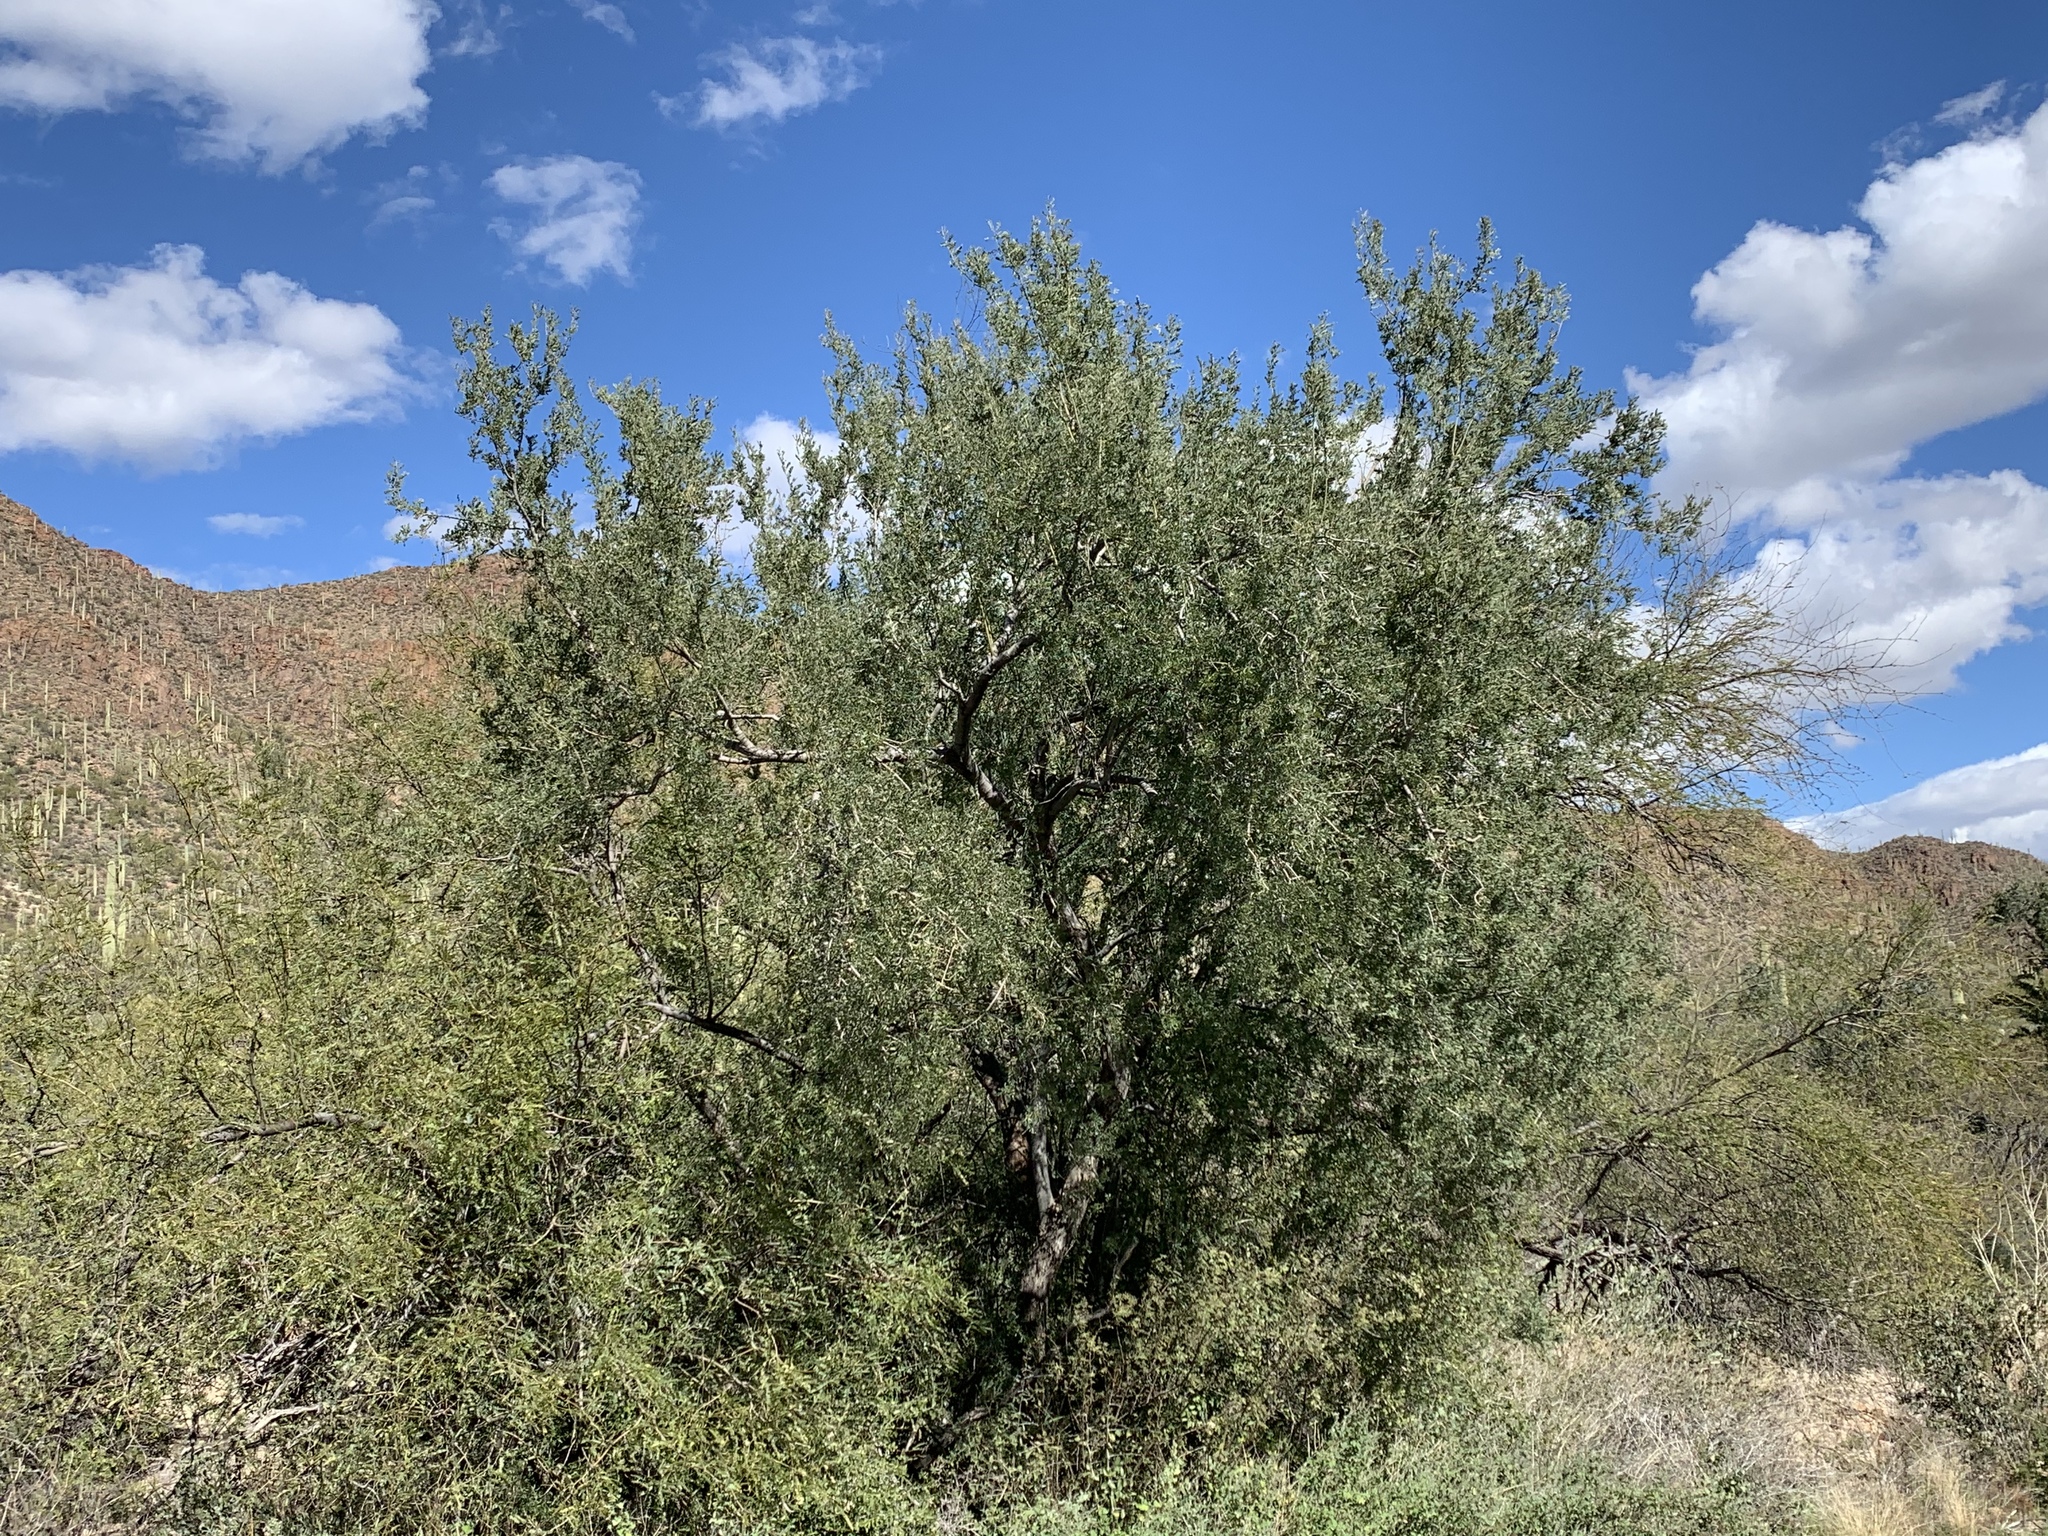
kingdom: Plantae
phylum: Tracheophyta
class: Magnoliopsida
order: Fabales
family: Fabaceae
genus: Olneya
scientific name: Olneya tesota
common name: Desert ironwood
